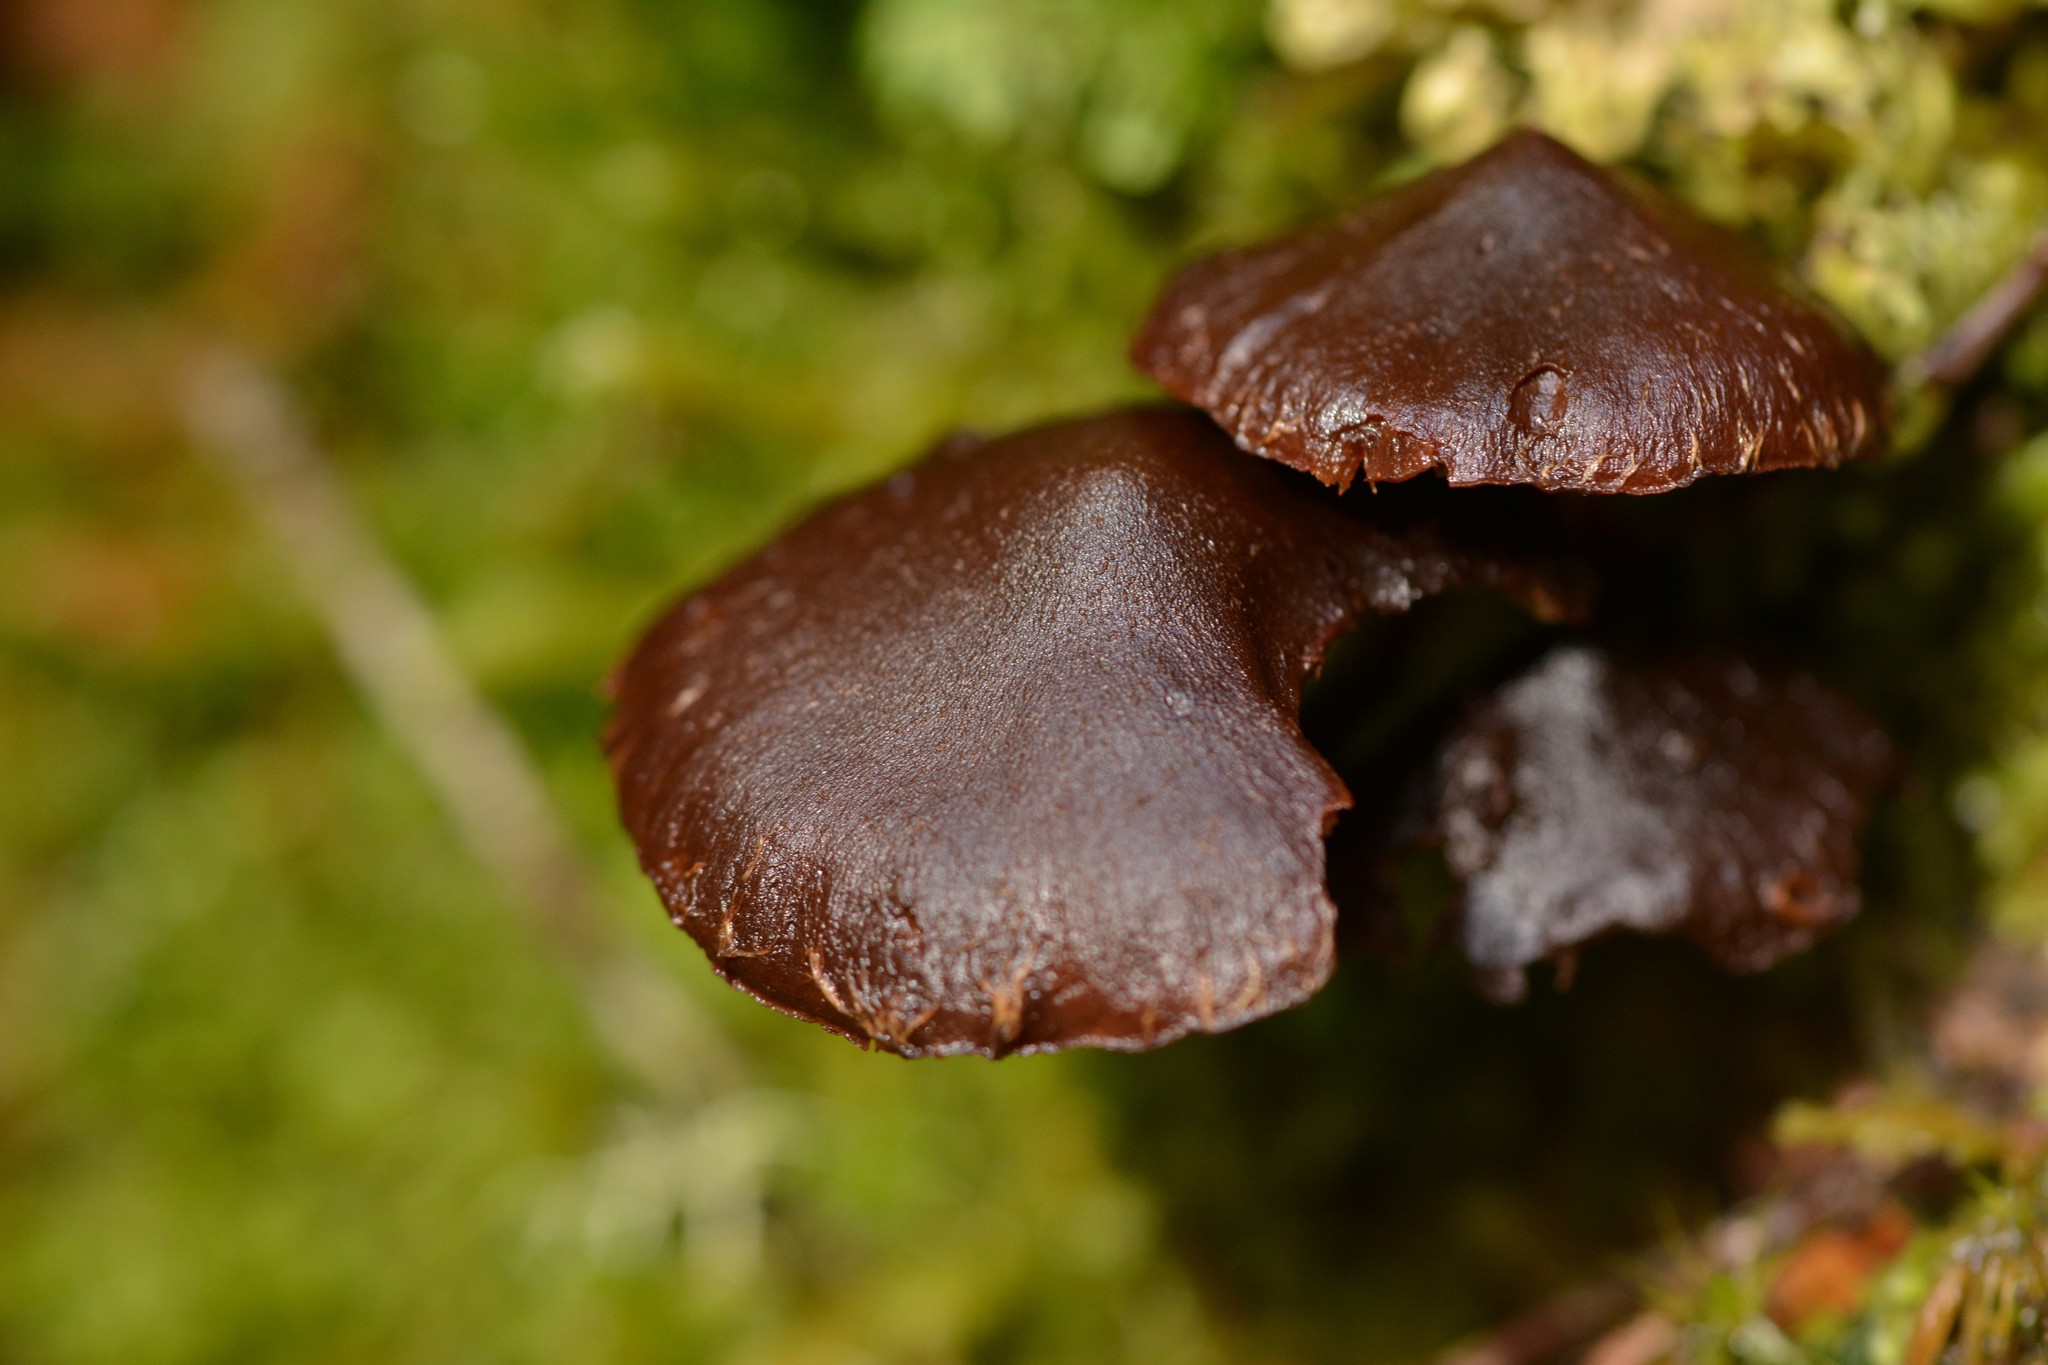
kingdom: Fungi
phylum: Basidiomycota
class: Agaricomycetes
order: Agaricales
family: Strophariaceae
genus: Hypholoma
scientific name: Hypholoma brunneum
